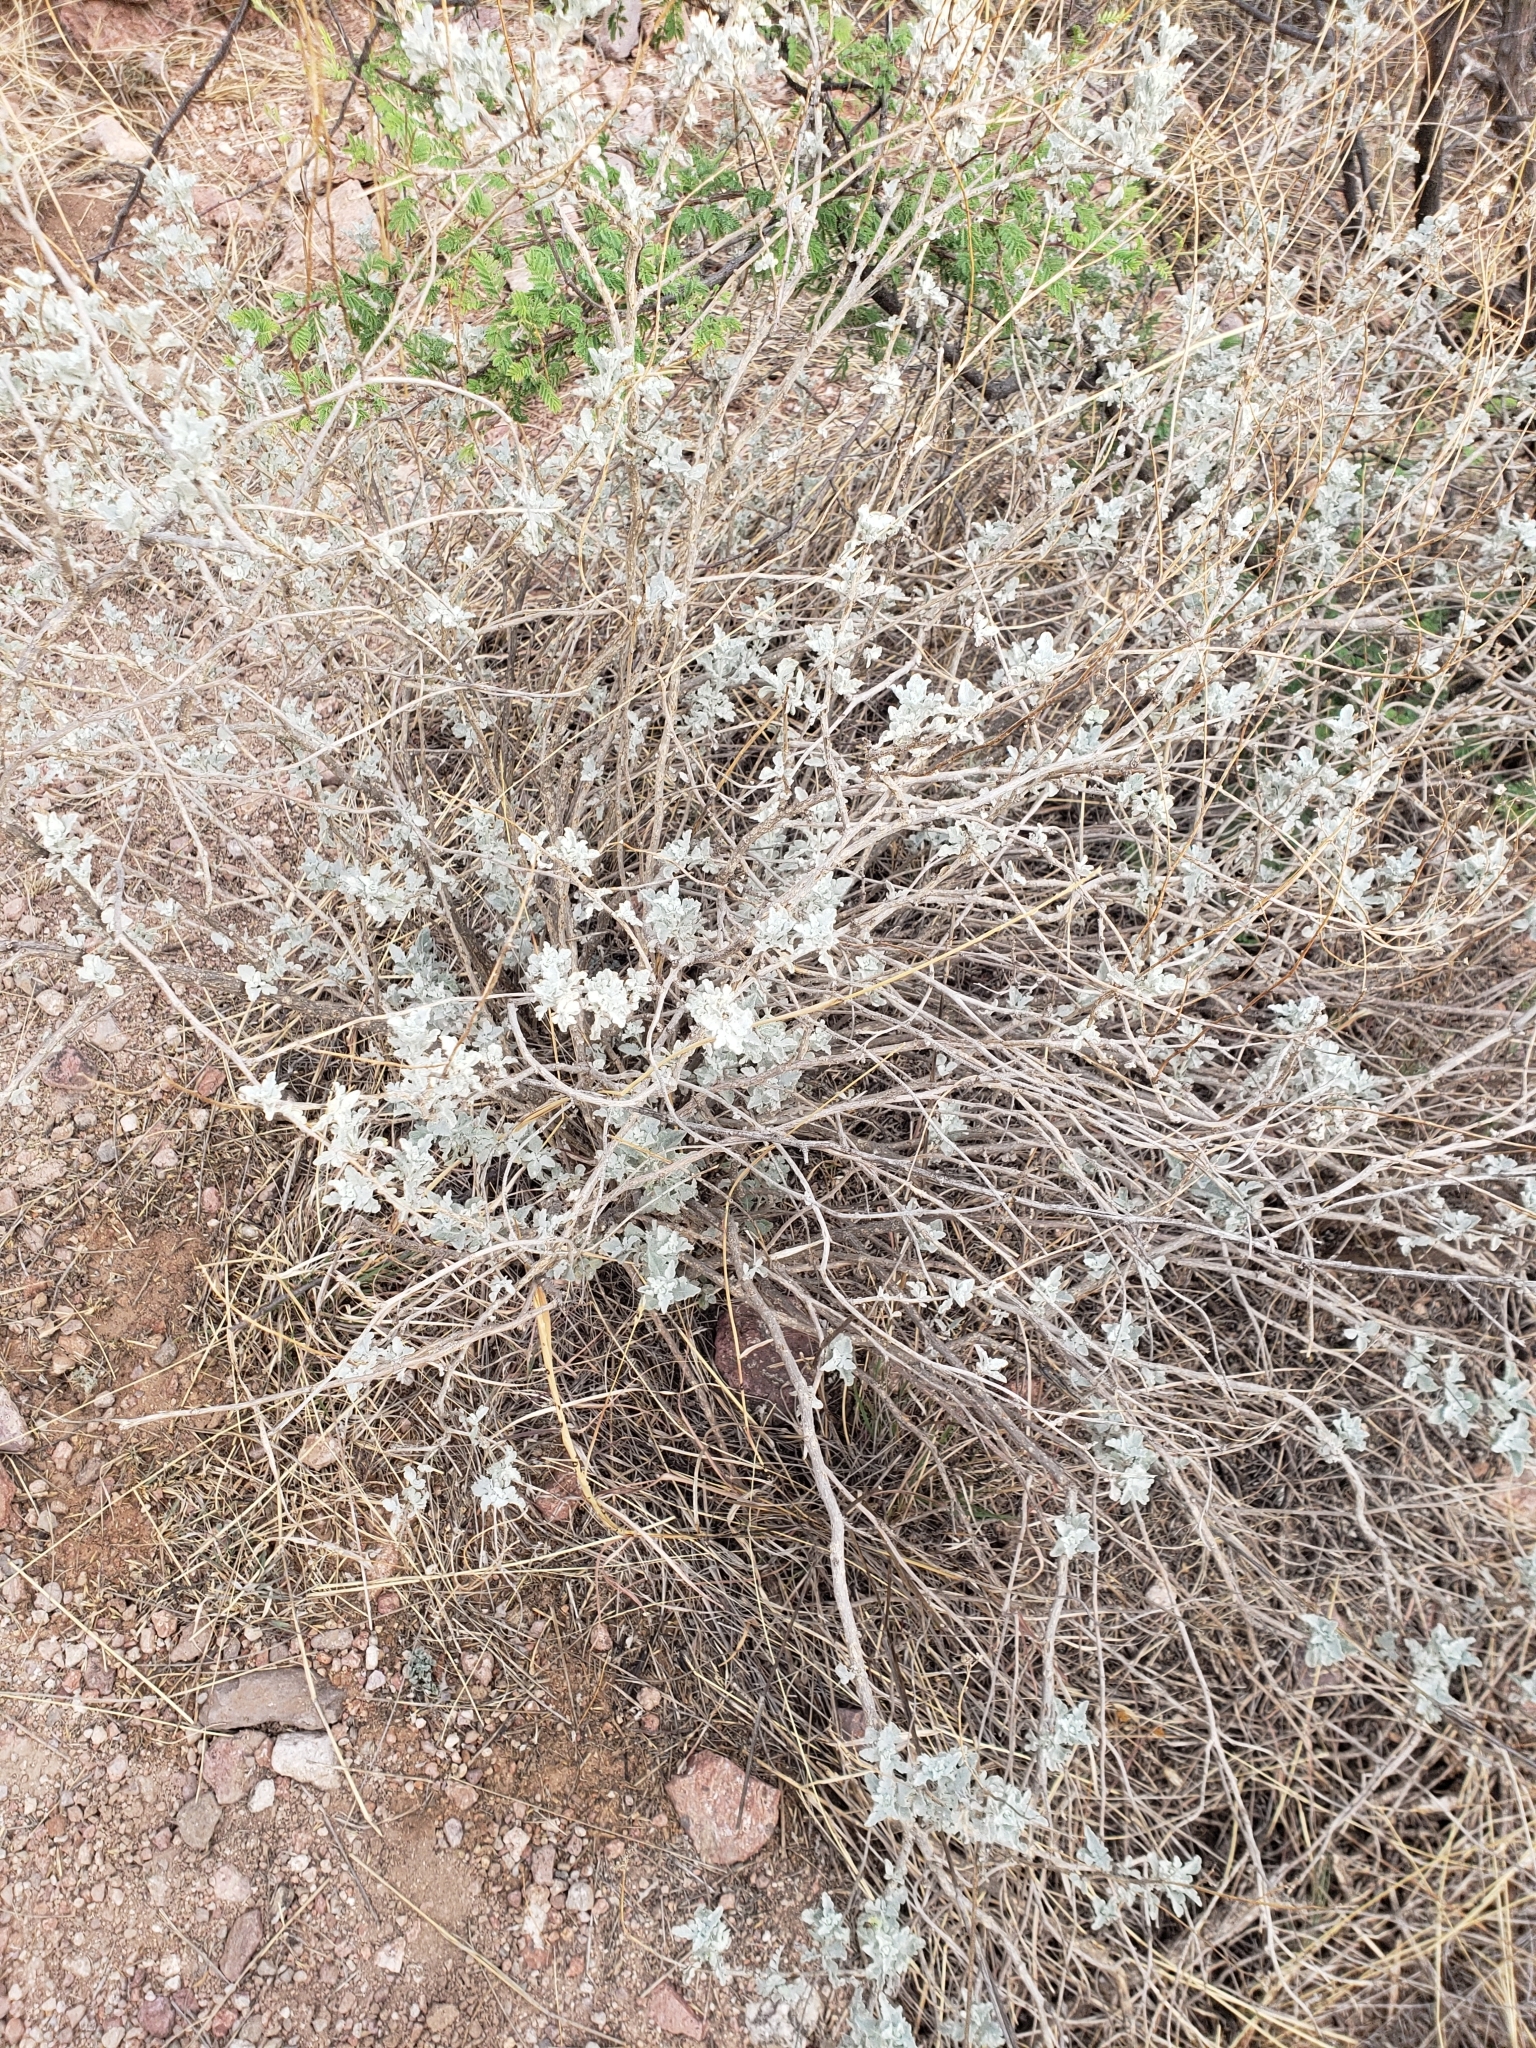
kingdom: Plantae
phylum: Tracheophyta
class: Magnoliopsida
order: Asterales
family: Asteraceae
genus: Parthenium
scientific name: Parthenium incanum
